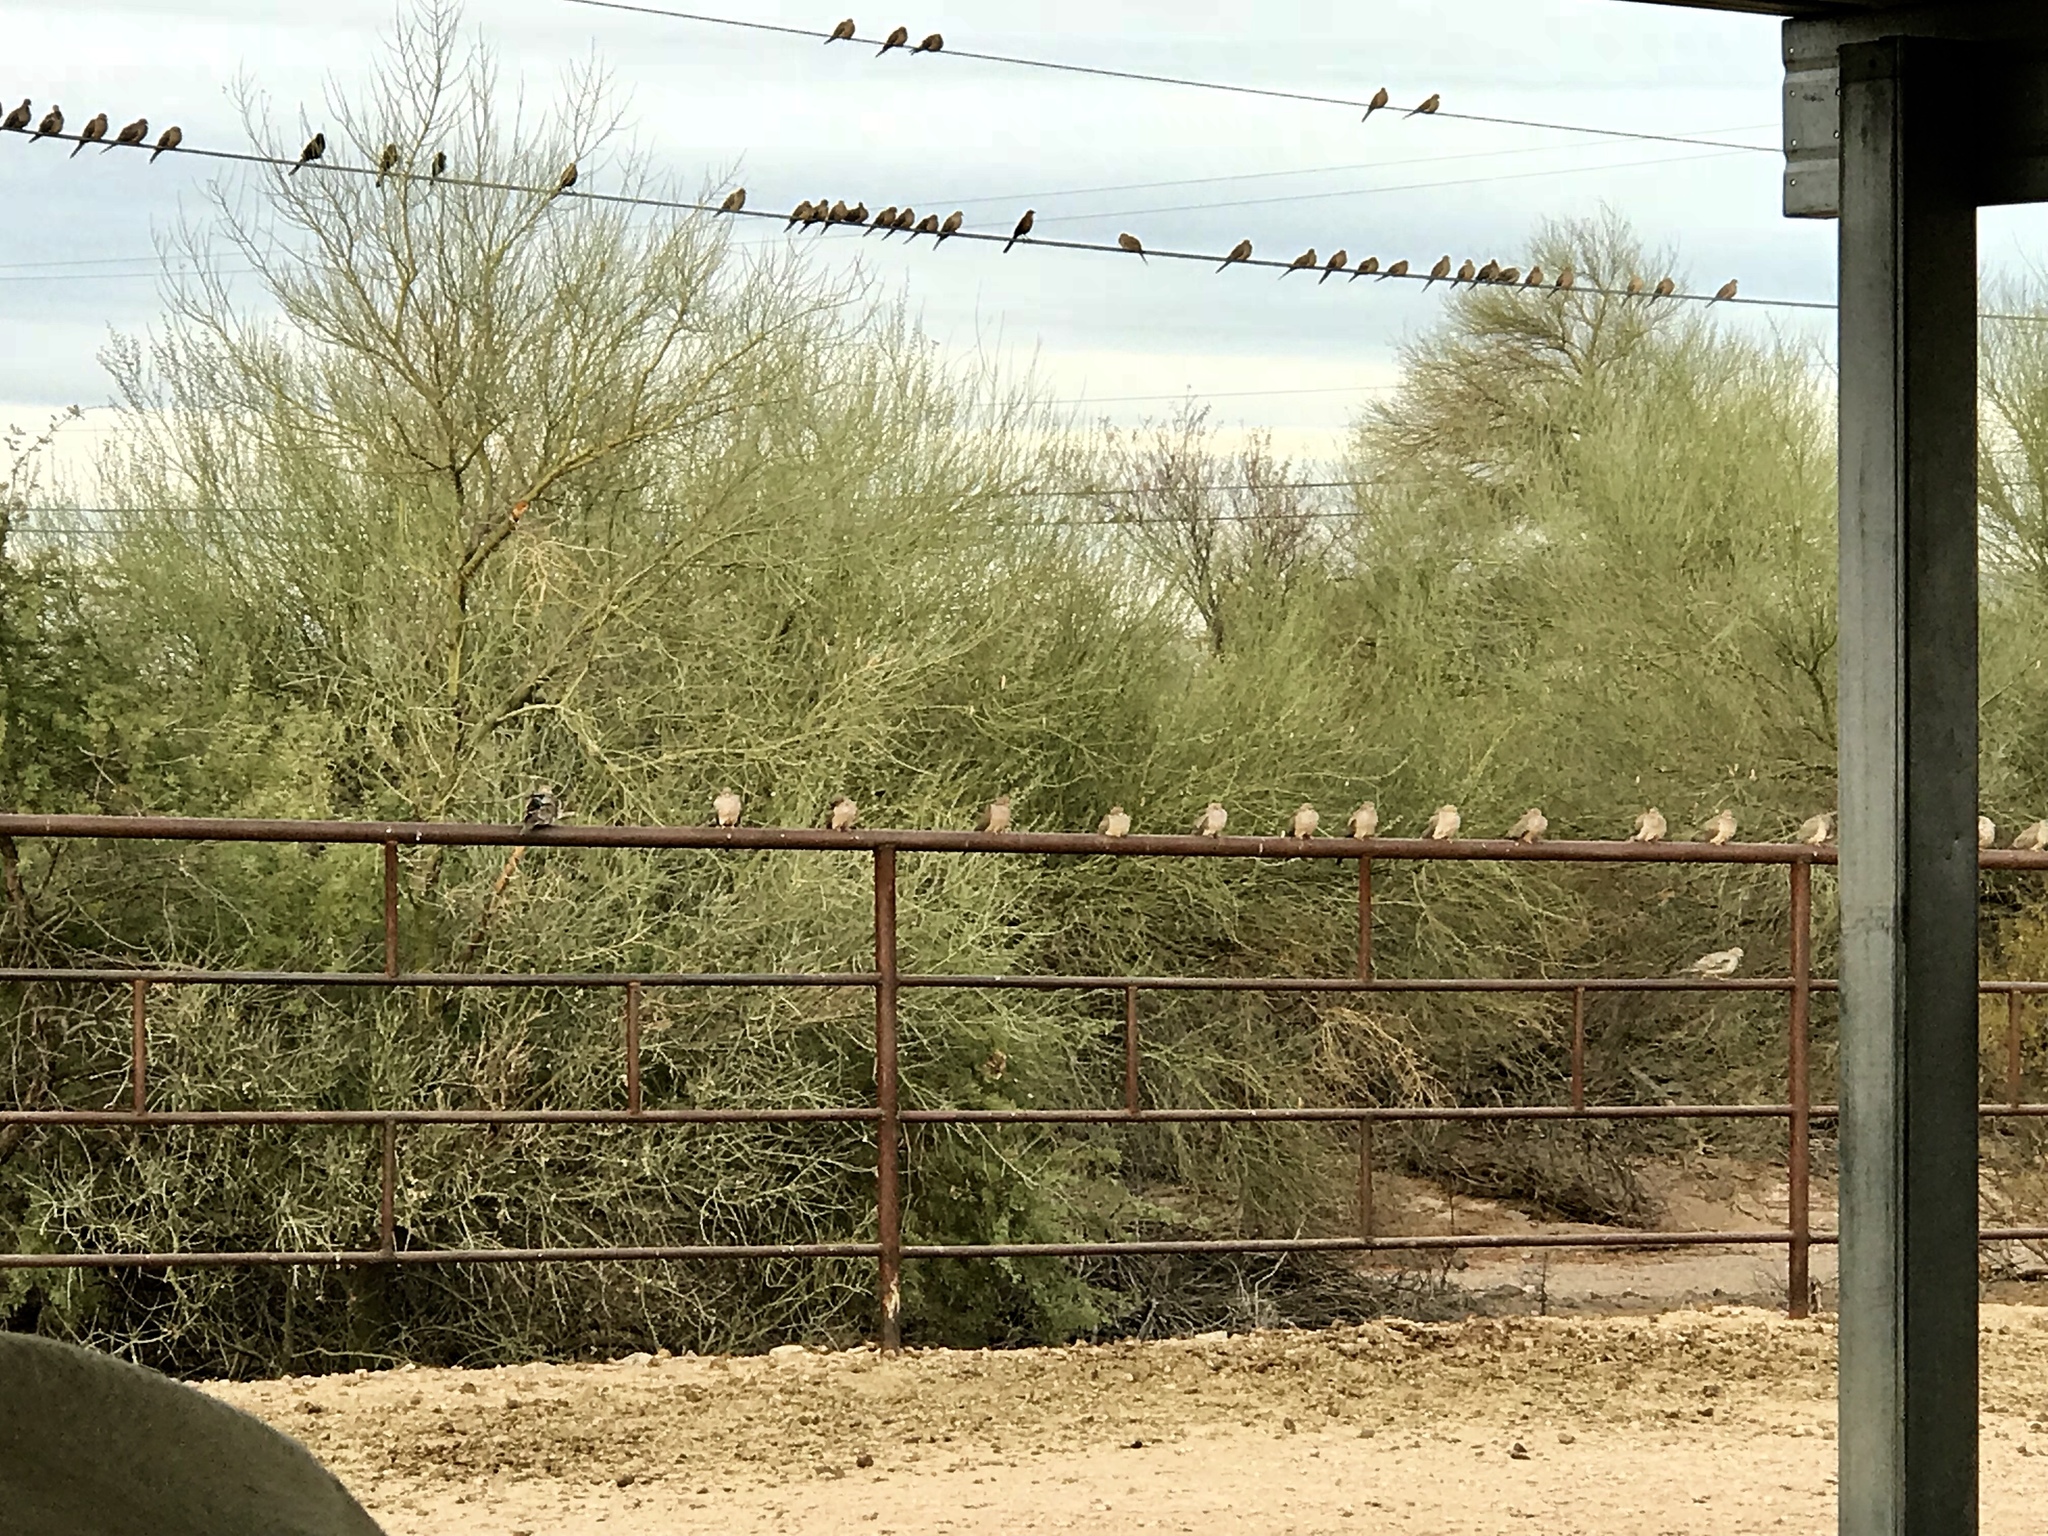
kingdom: Animalia
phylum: Chordata
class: Aves
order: Columbiformes
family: Columbidae
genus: Zenaida
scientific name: Zenaida macroura
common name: Mourning dove
